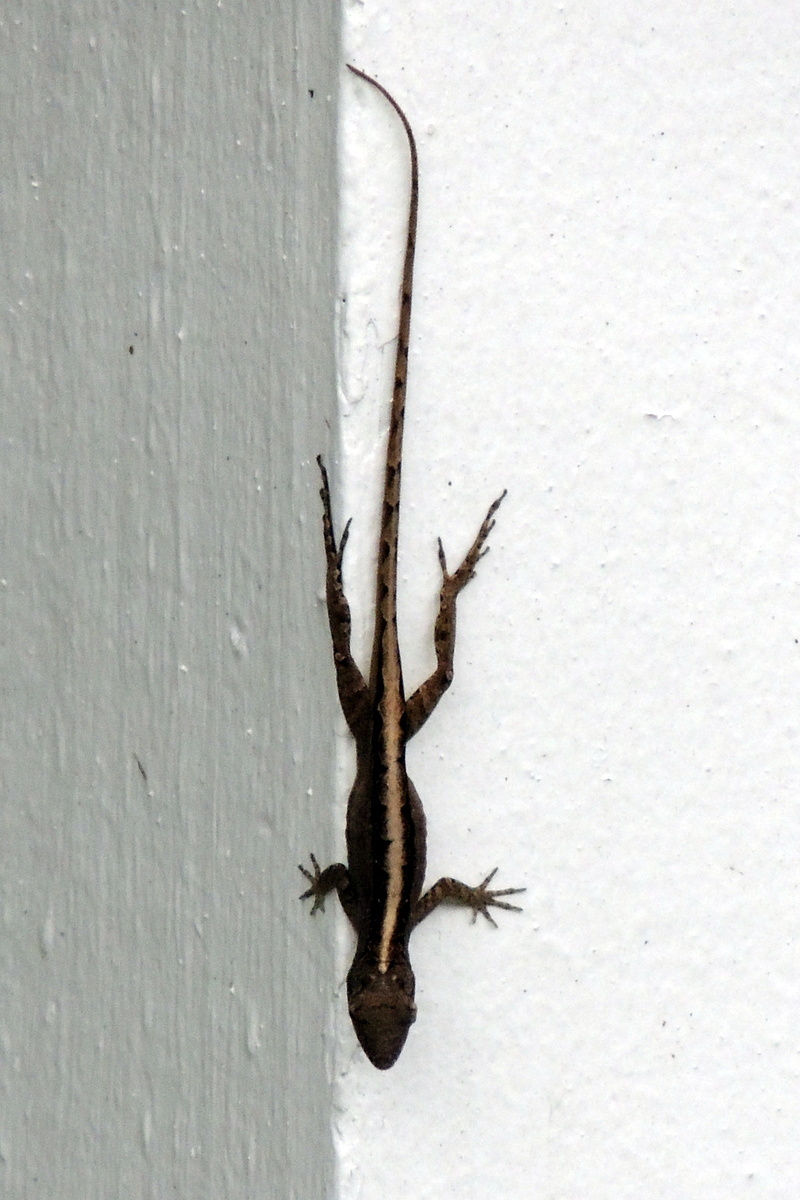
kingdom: Animalia
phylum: Chordata
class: Squamata
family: Dactyloidae
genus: Anolis
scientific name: Anolis sagrei
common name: Brown anole
